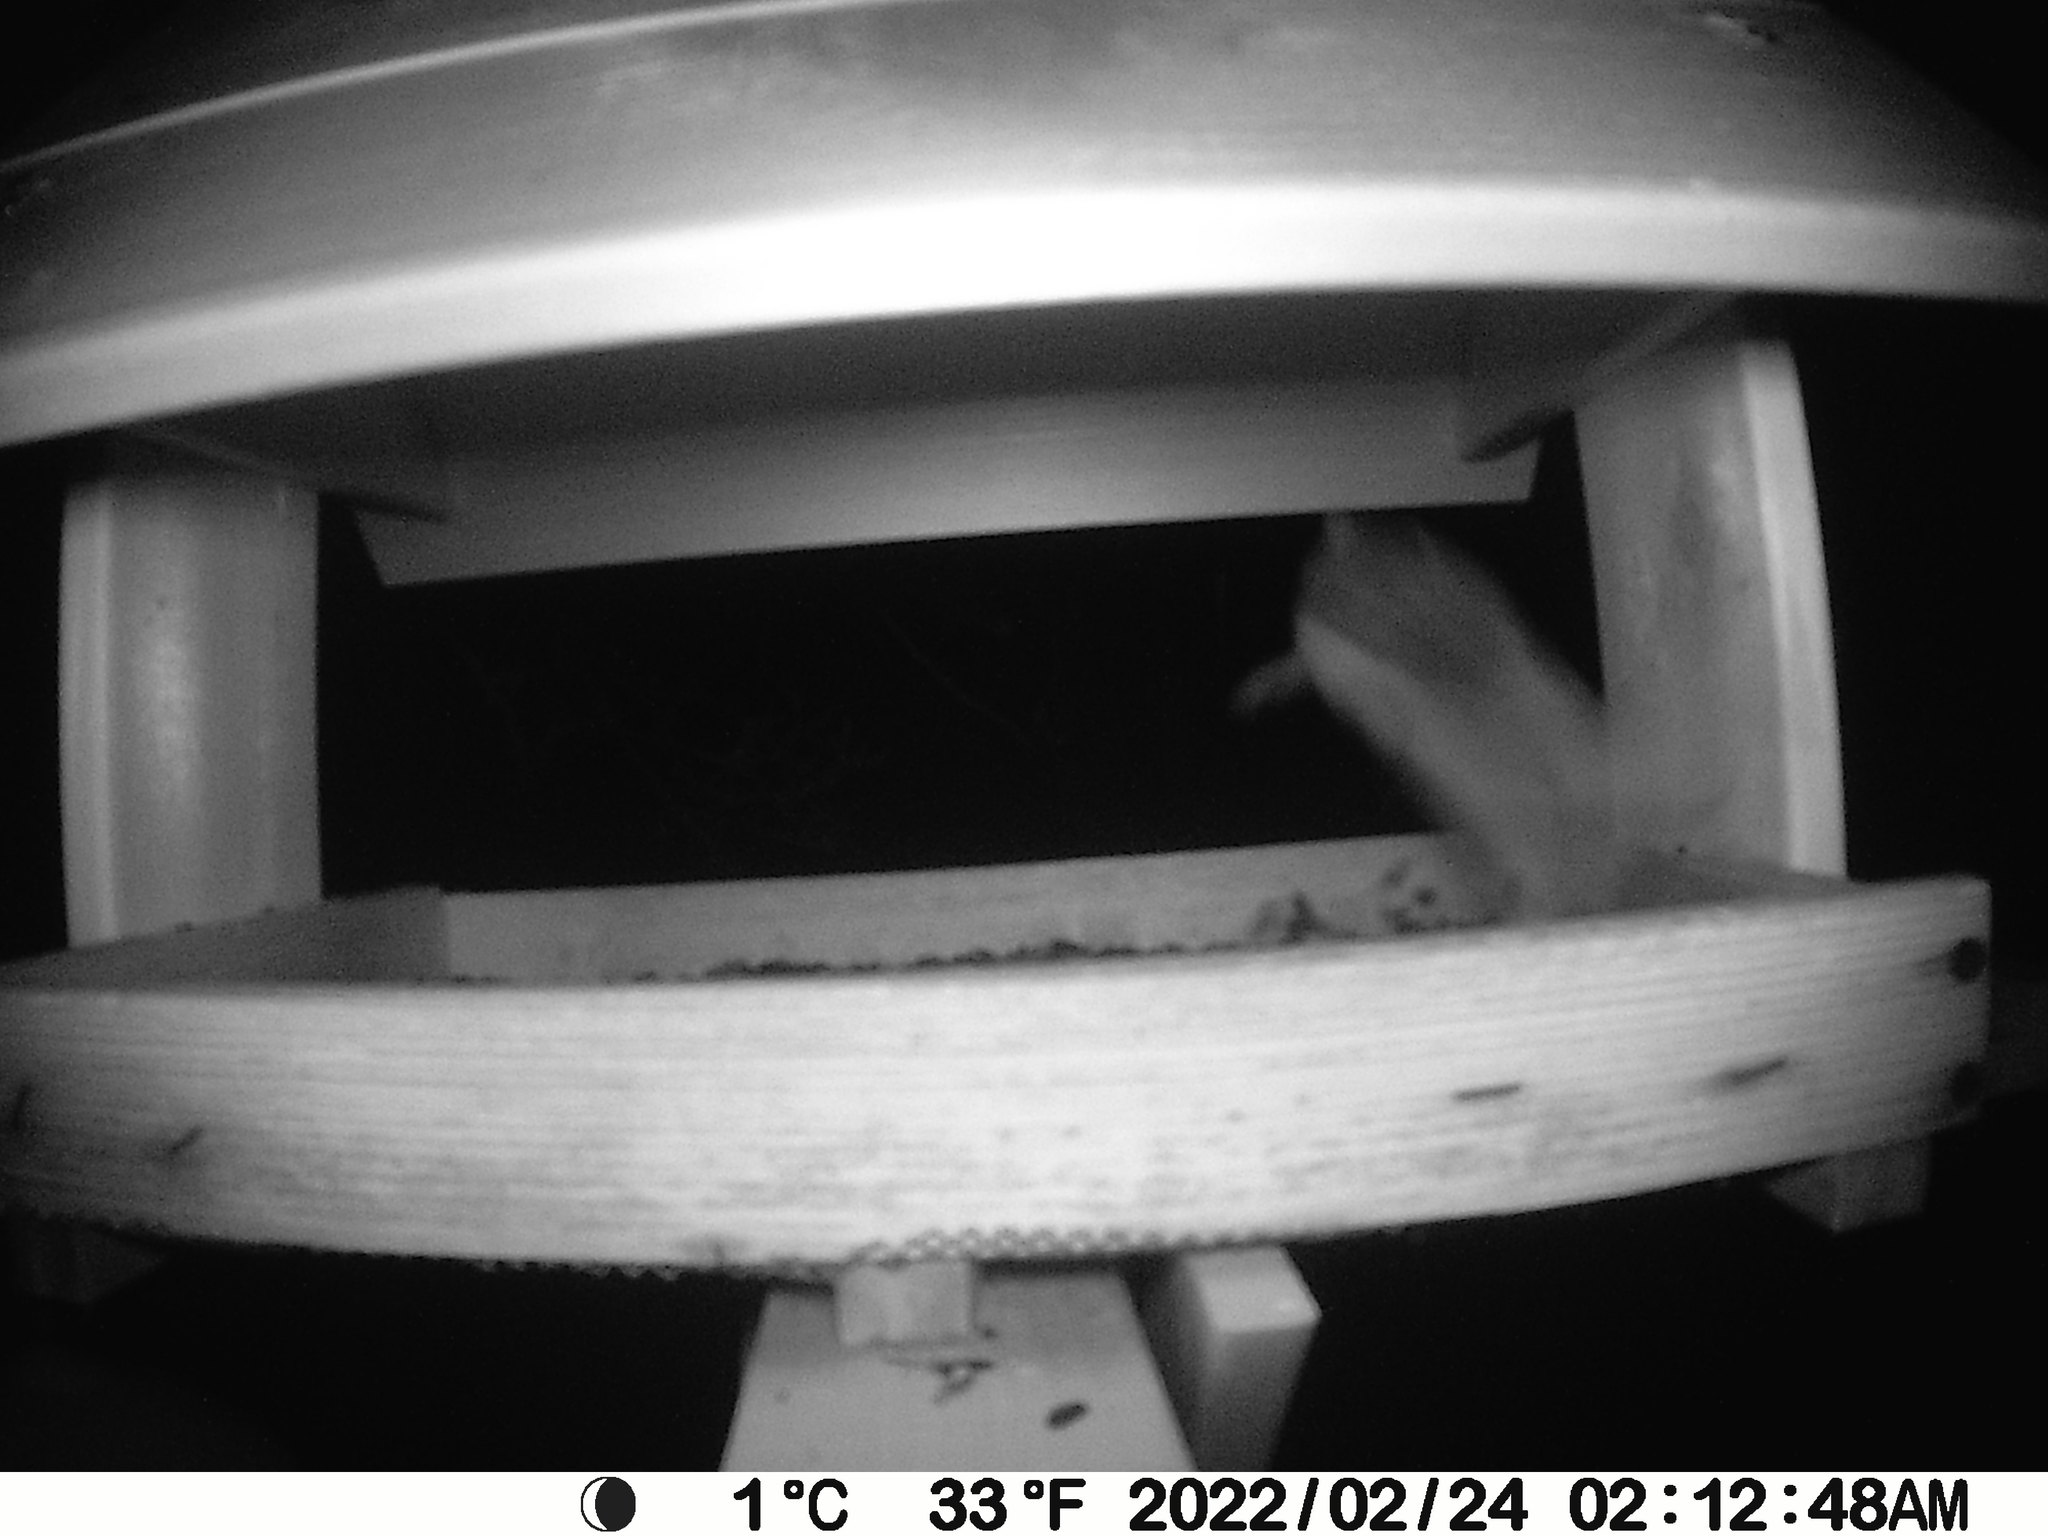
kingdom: Animalia
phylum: Chordata
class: Mammalia
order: Rodentia
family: Sciuridae
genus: Glaucomys
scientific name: Glaucomys sabrinus
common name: Northern flying squirrel
